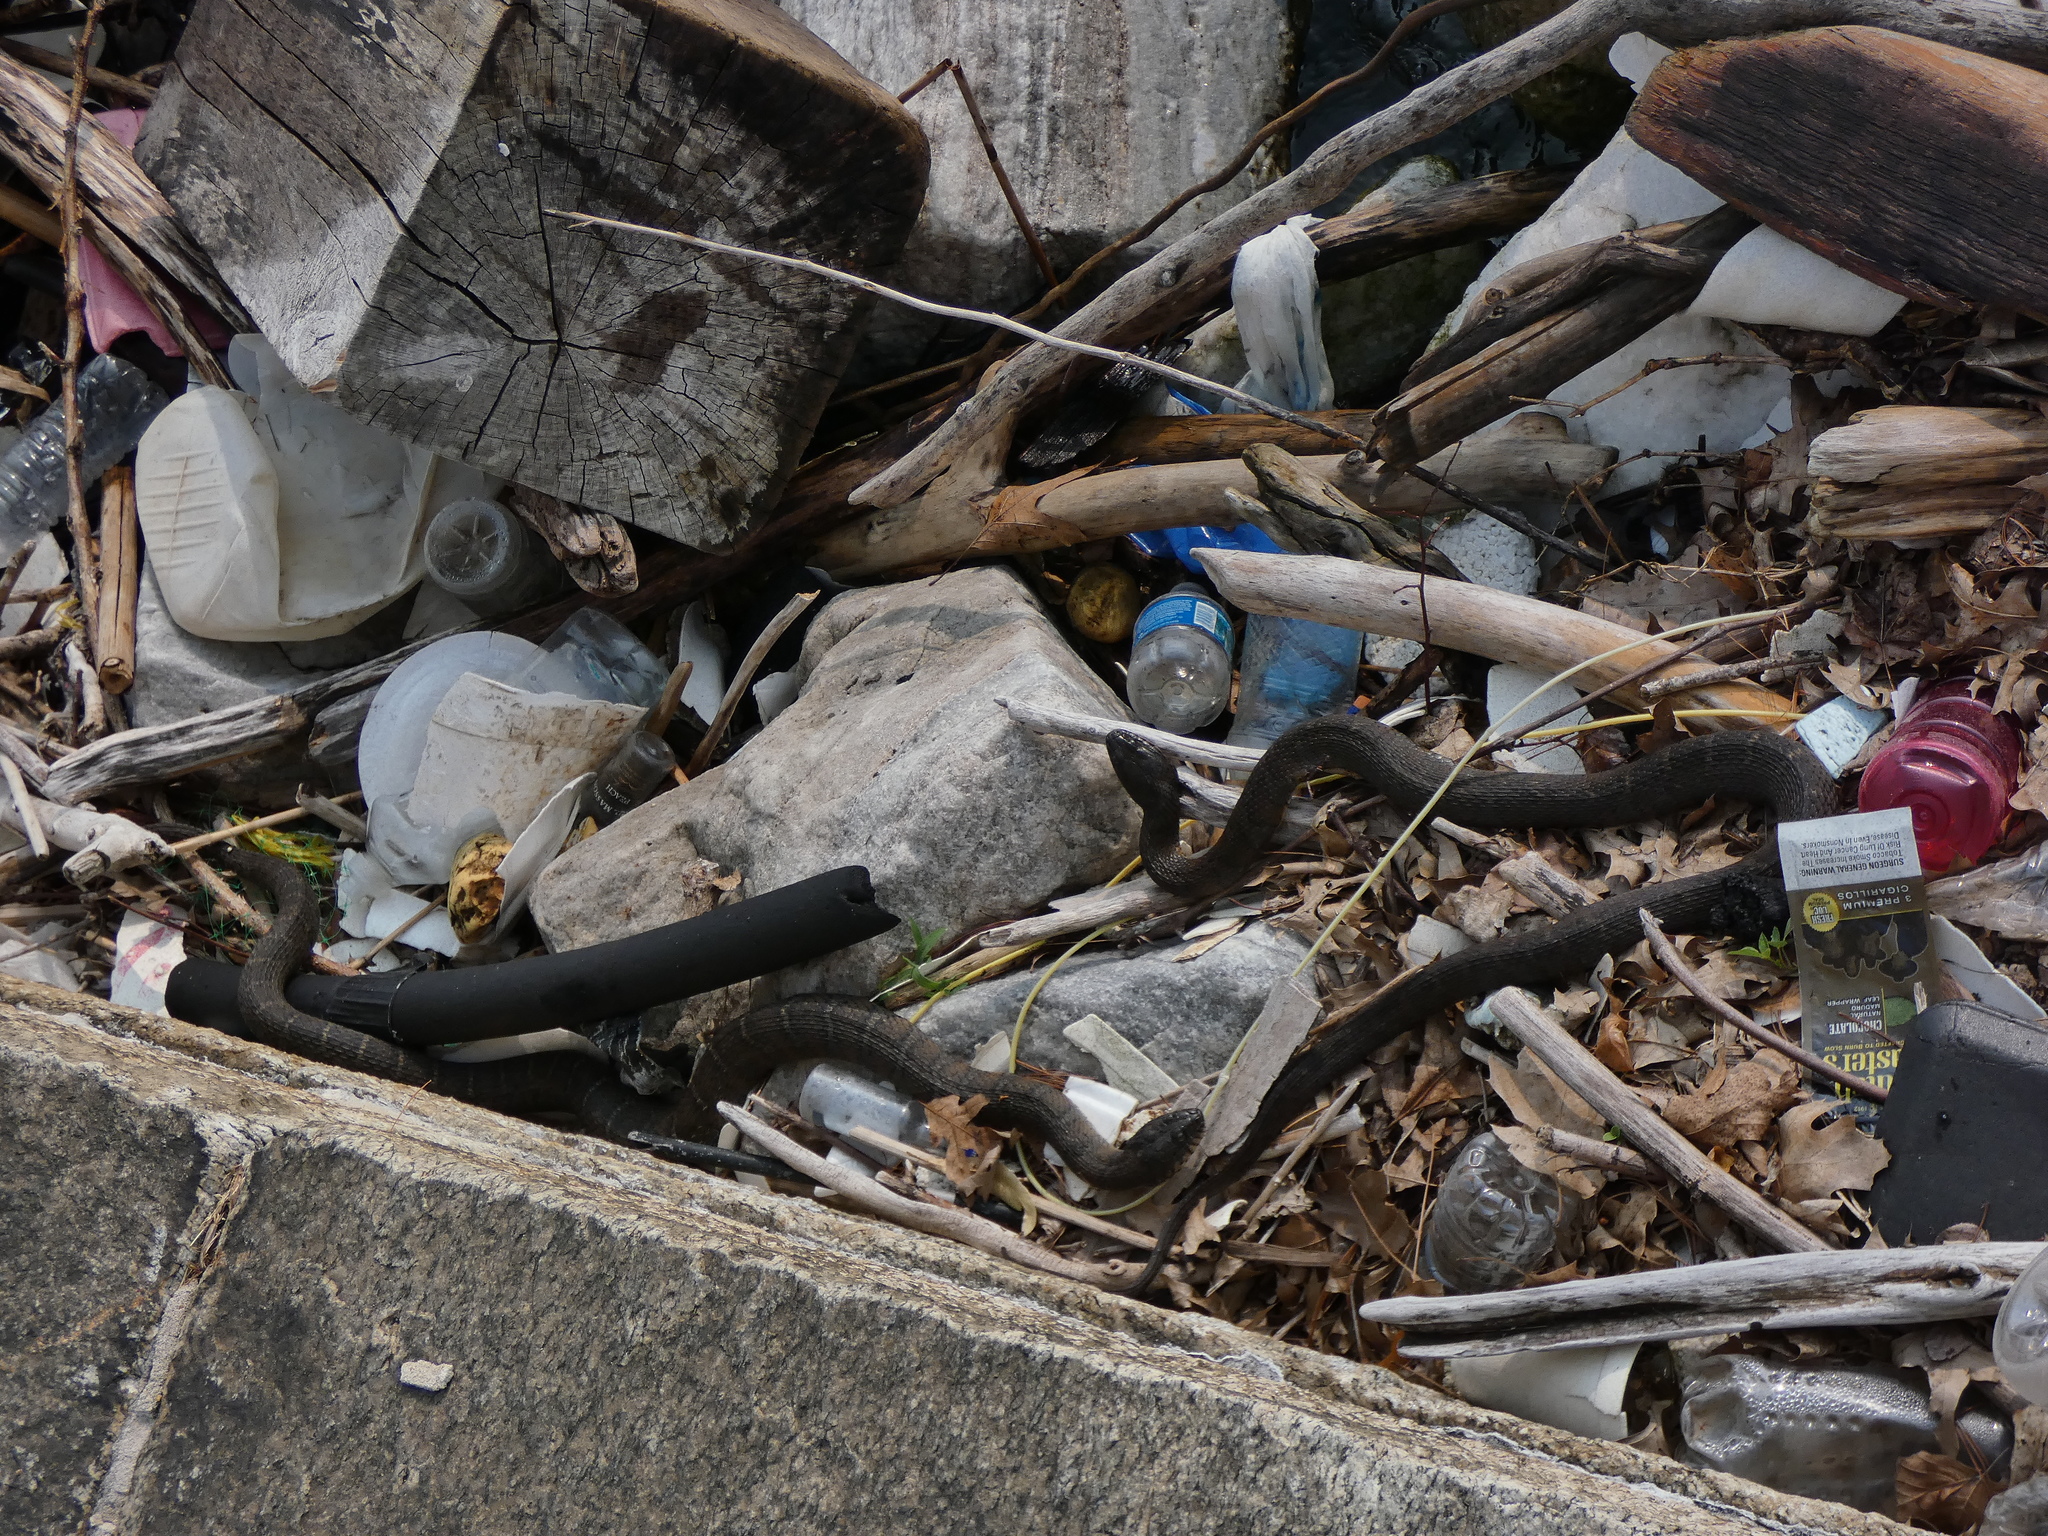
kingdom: Animalia
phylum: Chordata
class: Squamata
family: Colubridae
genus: Nerodia
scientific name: Nerodia sipedon
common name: Northern water snake
